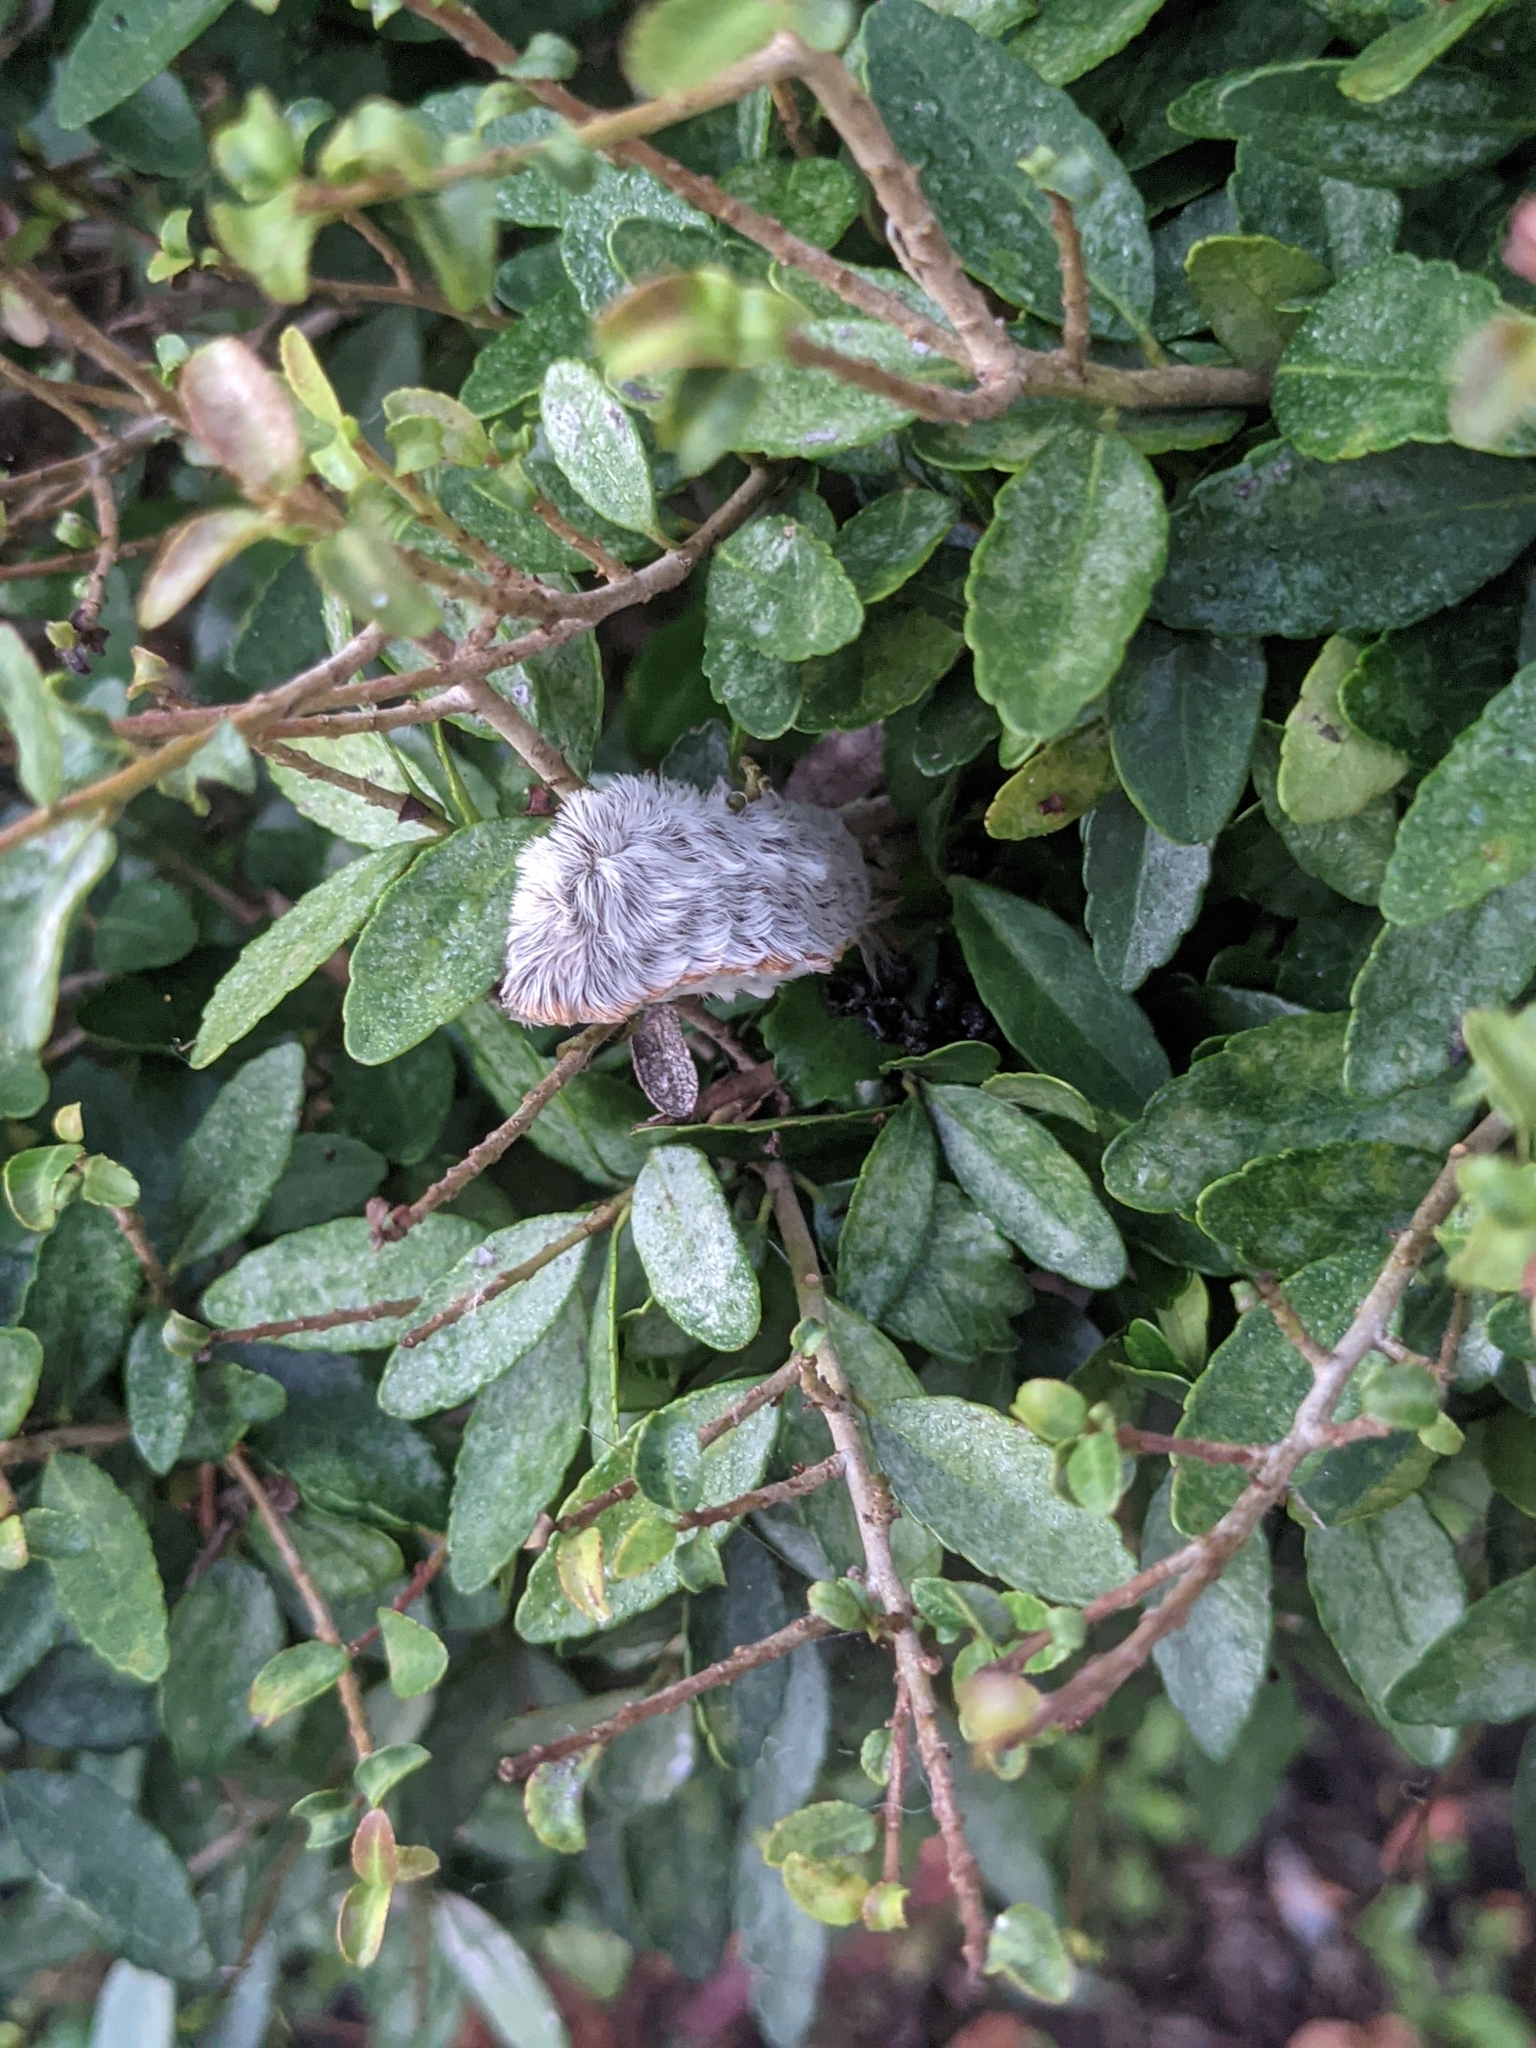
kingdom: Animalia
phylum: Arthropoda
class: Insecta
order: Lepidoptera
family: Megalopygidae
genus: Megalopyge
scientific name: Megalopyge opercularis
